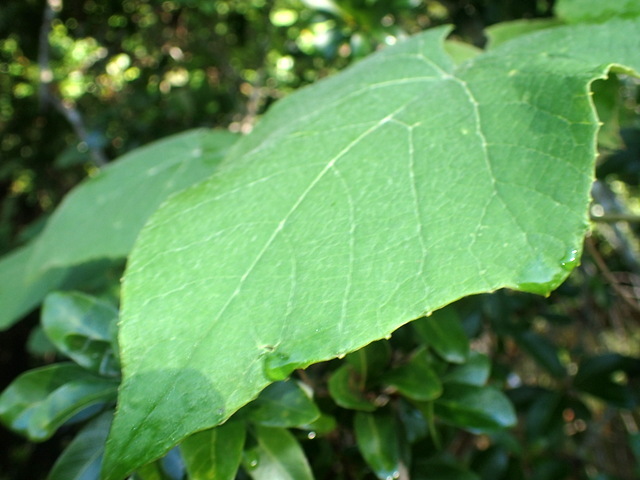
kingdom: Plantae
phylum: Tracheophyta
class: Magnoliopsida
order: Vitales
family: Vitaceae
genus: Vitis
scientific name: Vitis cinerea
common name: Ashy grape
